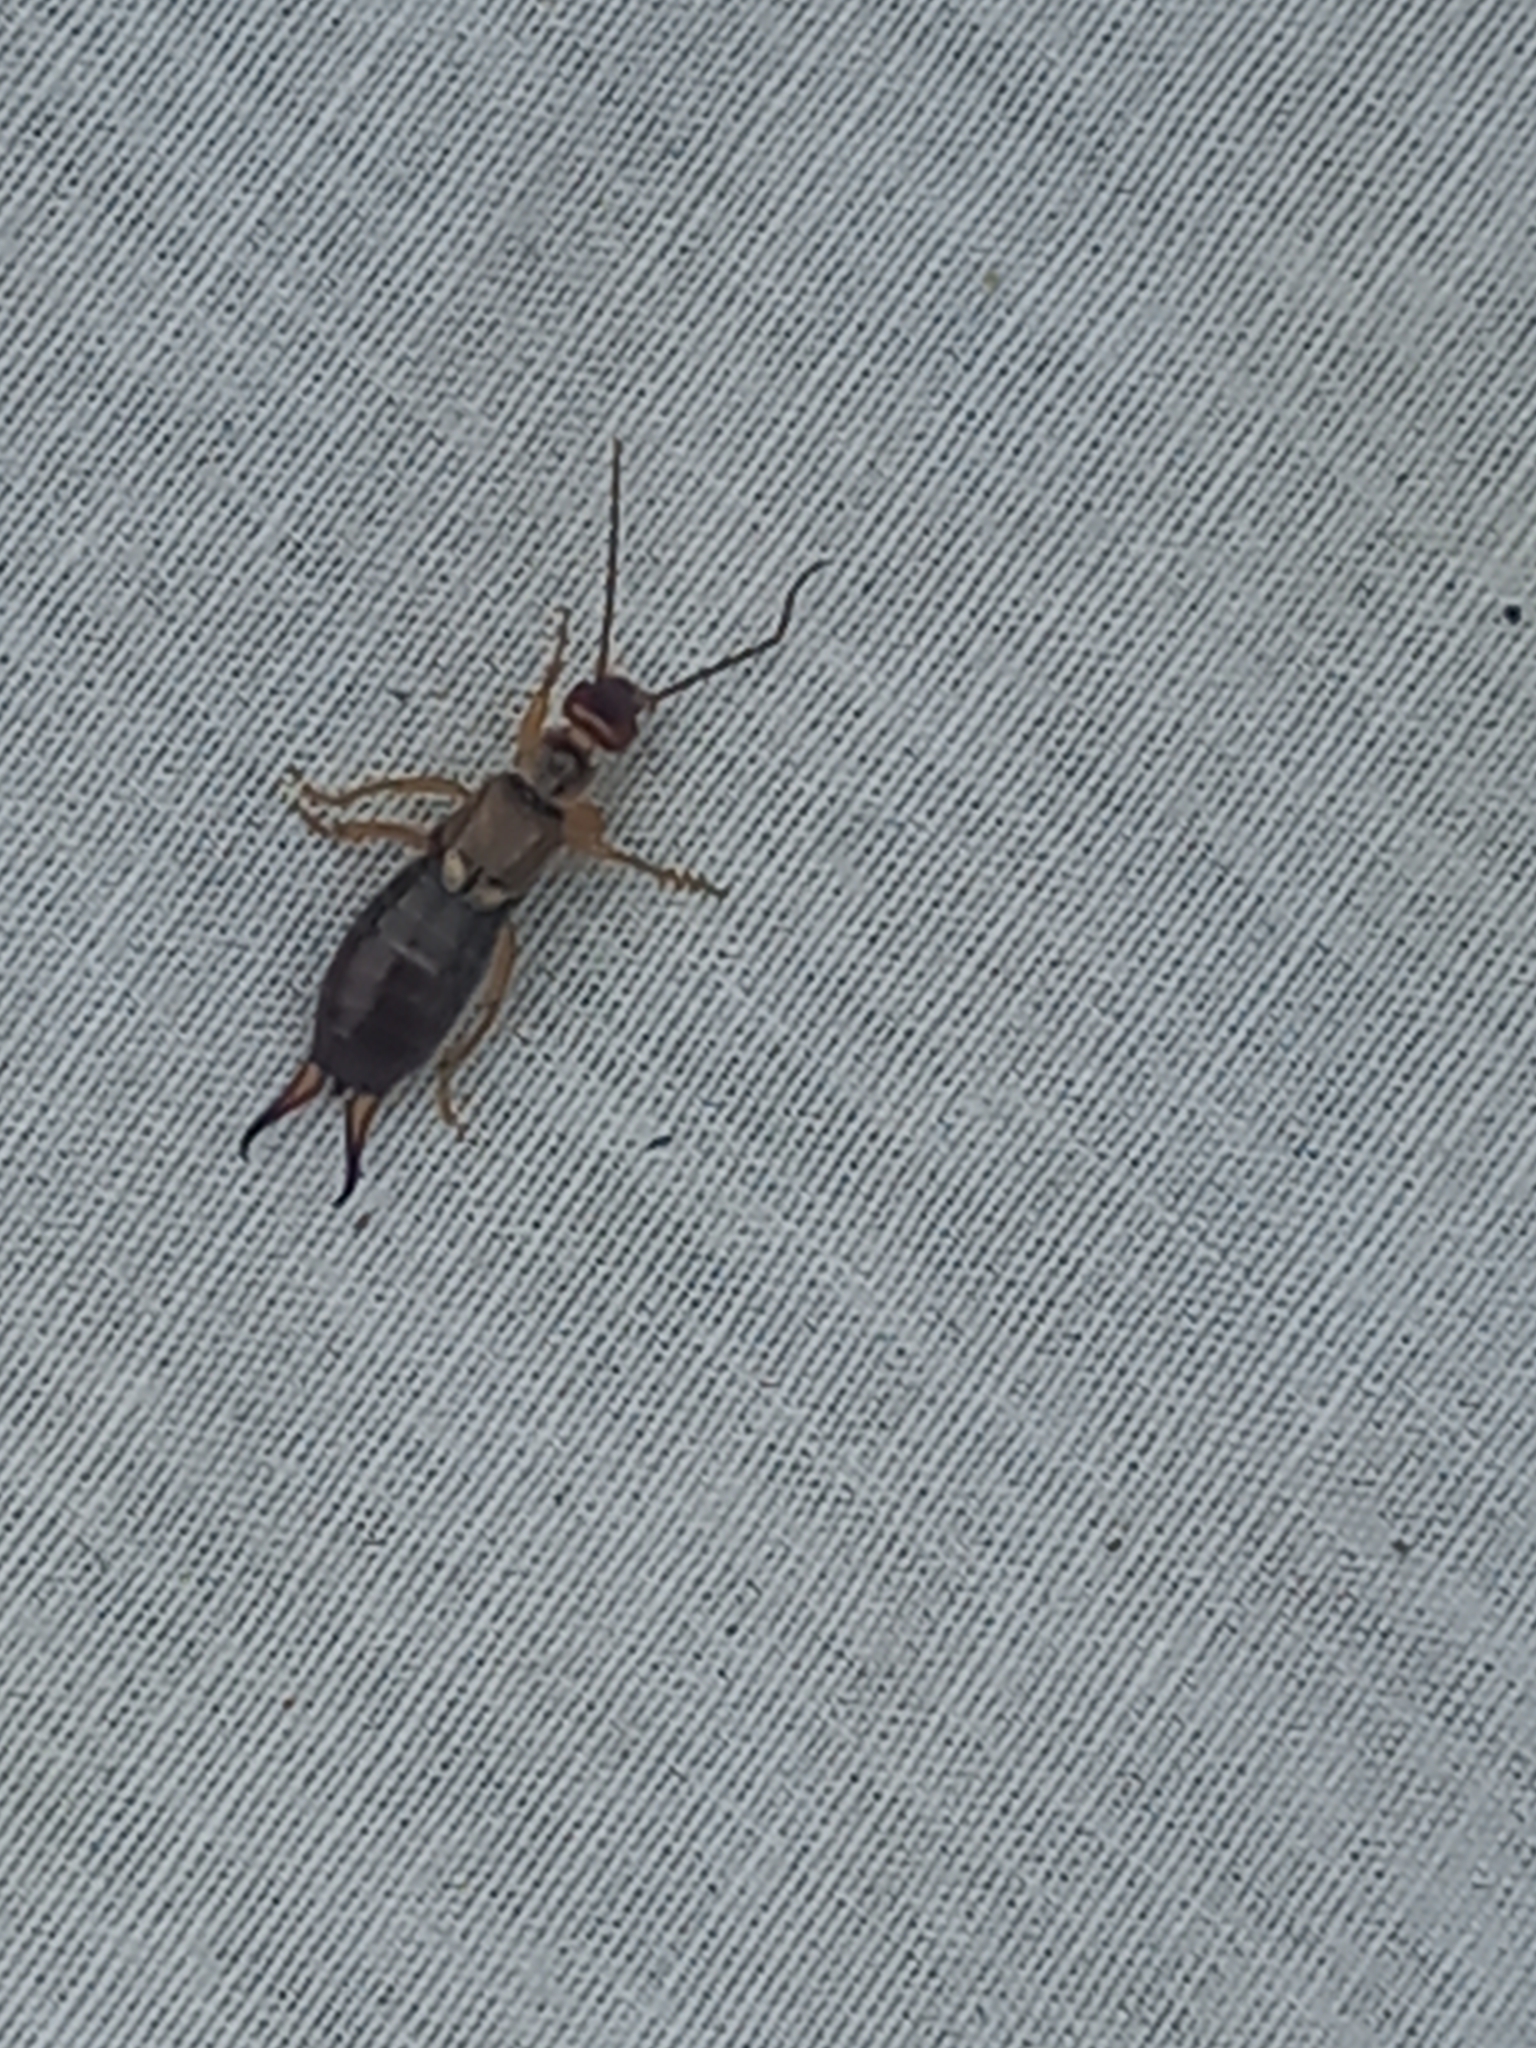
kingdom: Animalia
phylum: Arthropoda
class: Insecta
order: Dermaptera
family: Forficulidae
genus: Forficula
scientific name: Forficula dentata
